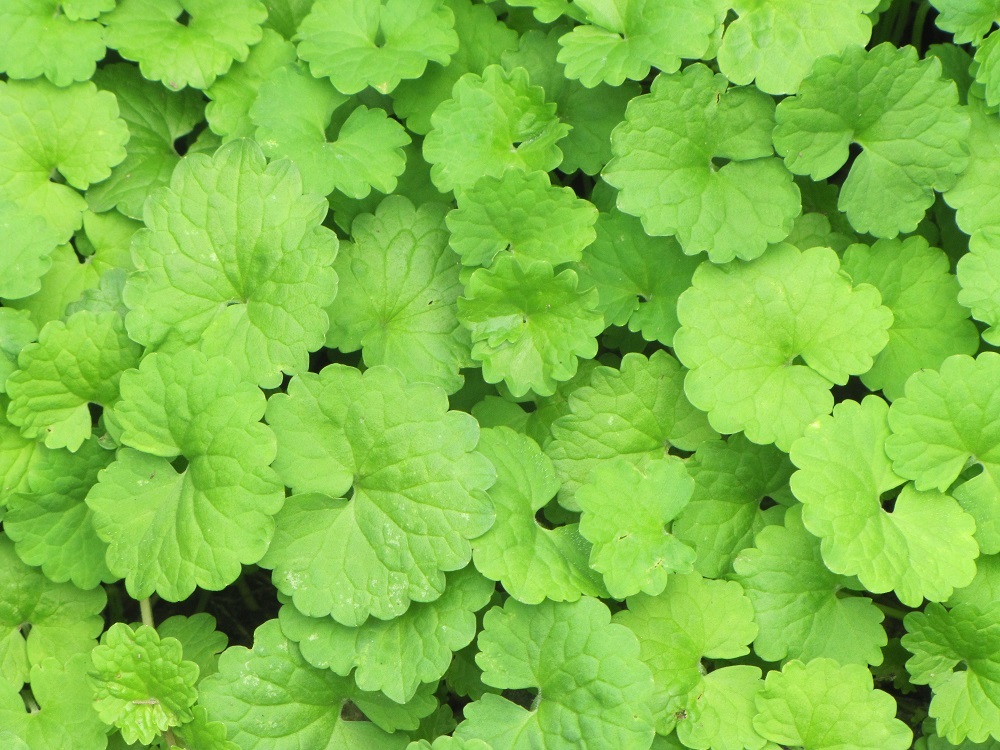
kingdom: Plantae
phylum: Tracheophyta
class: Magnoliopsida
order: Lamiales
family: Lamiaceae
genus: Glechoma
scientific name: Glechoma hederacea
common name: Ground ivy
